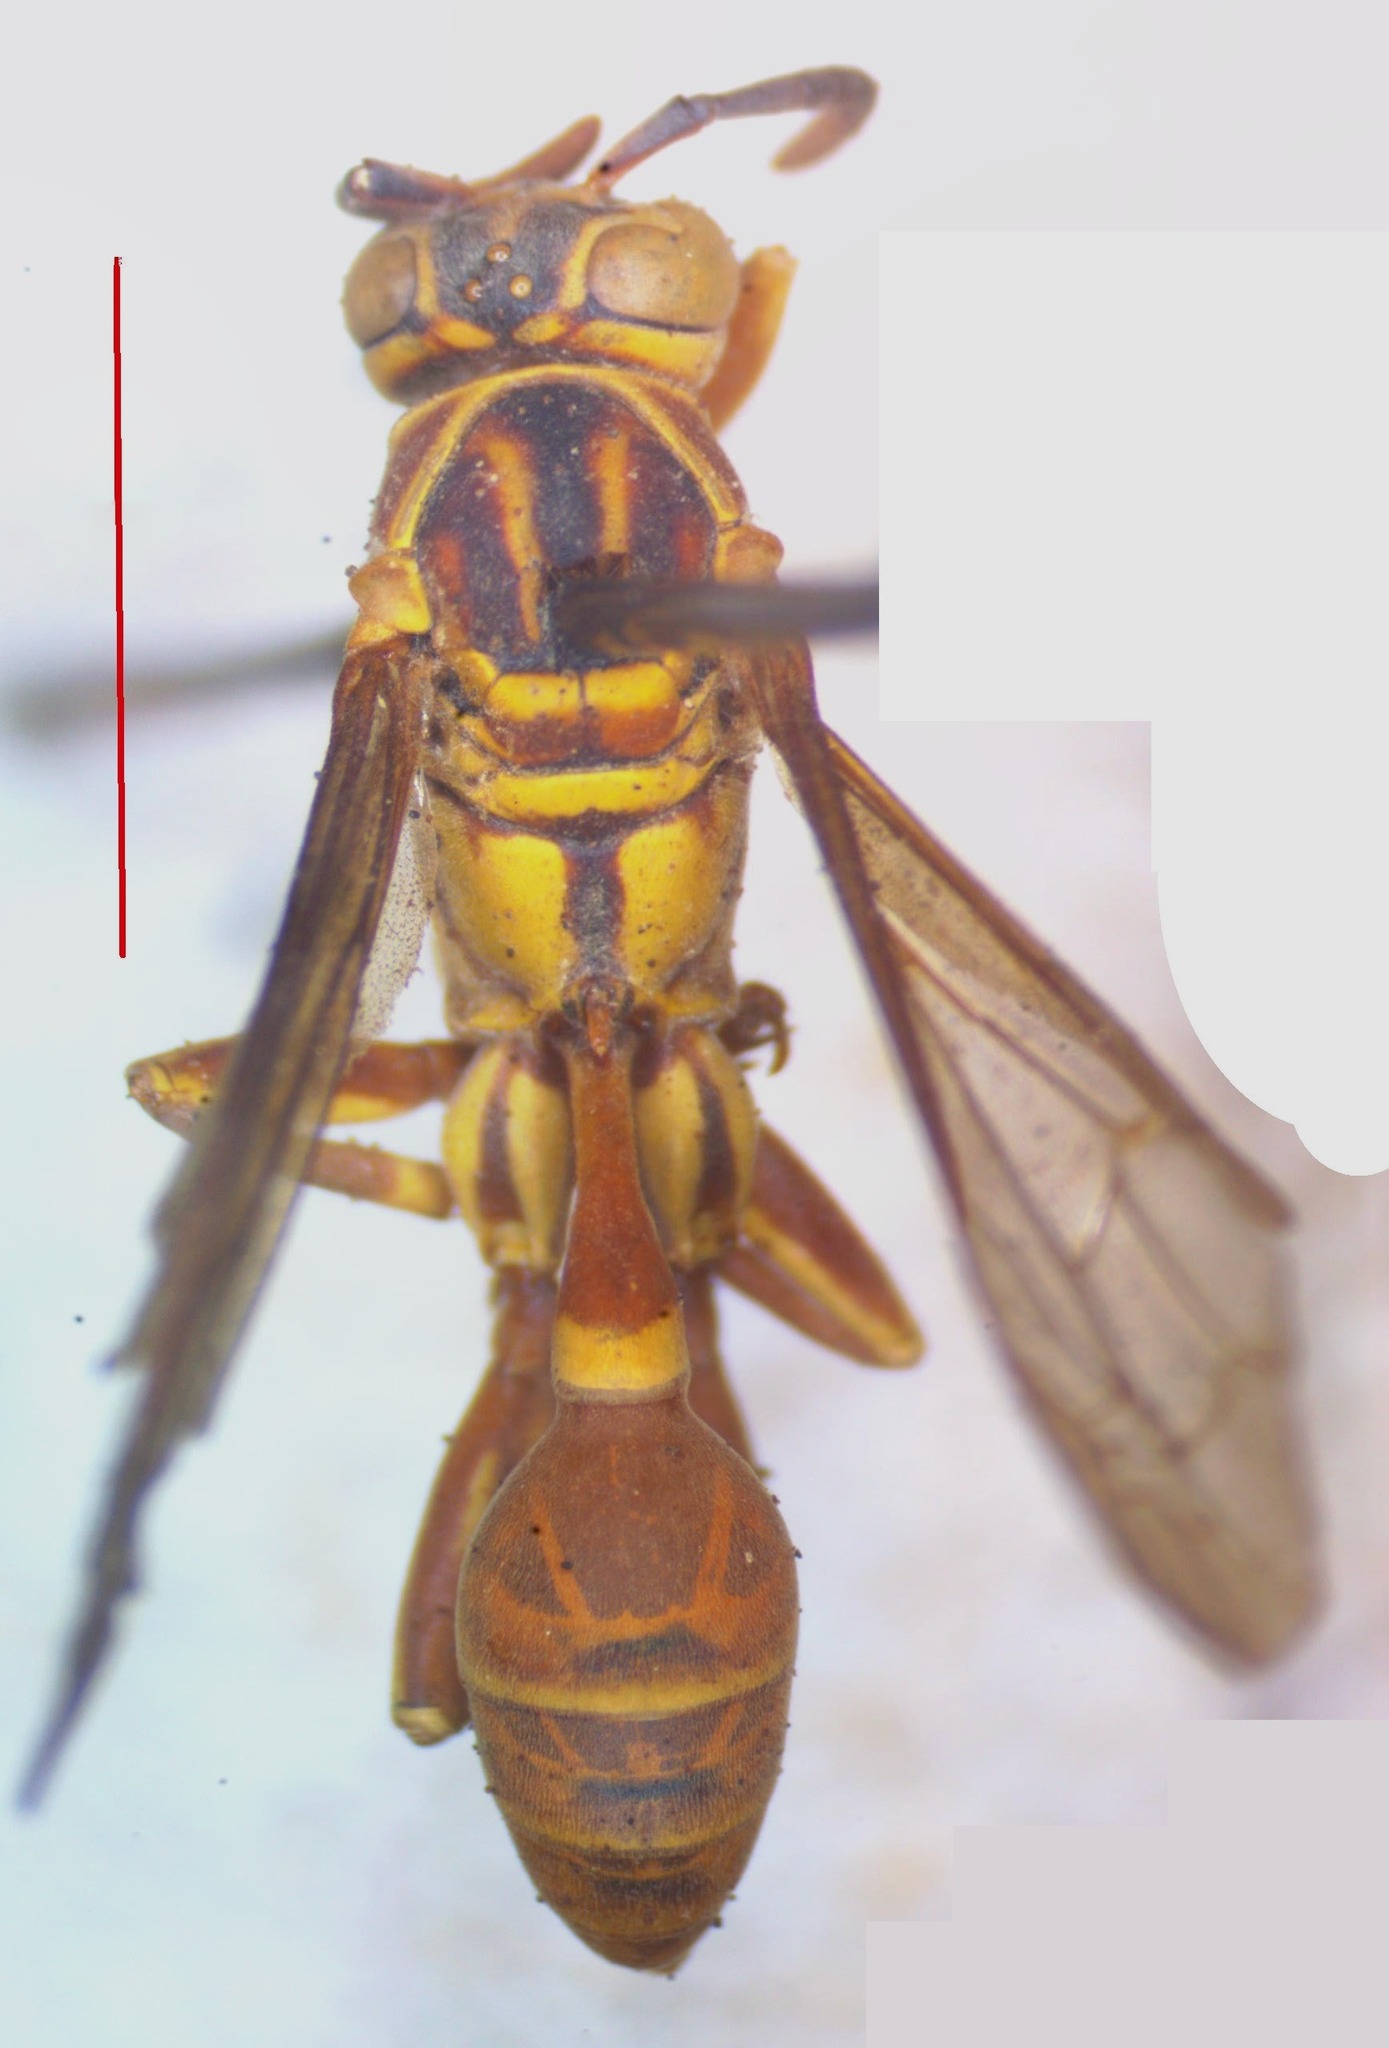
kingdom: Animalia
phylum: Arthropoda
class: Insecta
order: Hymenoptera
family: Vespidae
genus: Mischocyttarus
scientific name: Mischocyttarus angulatus
